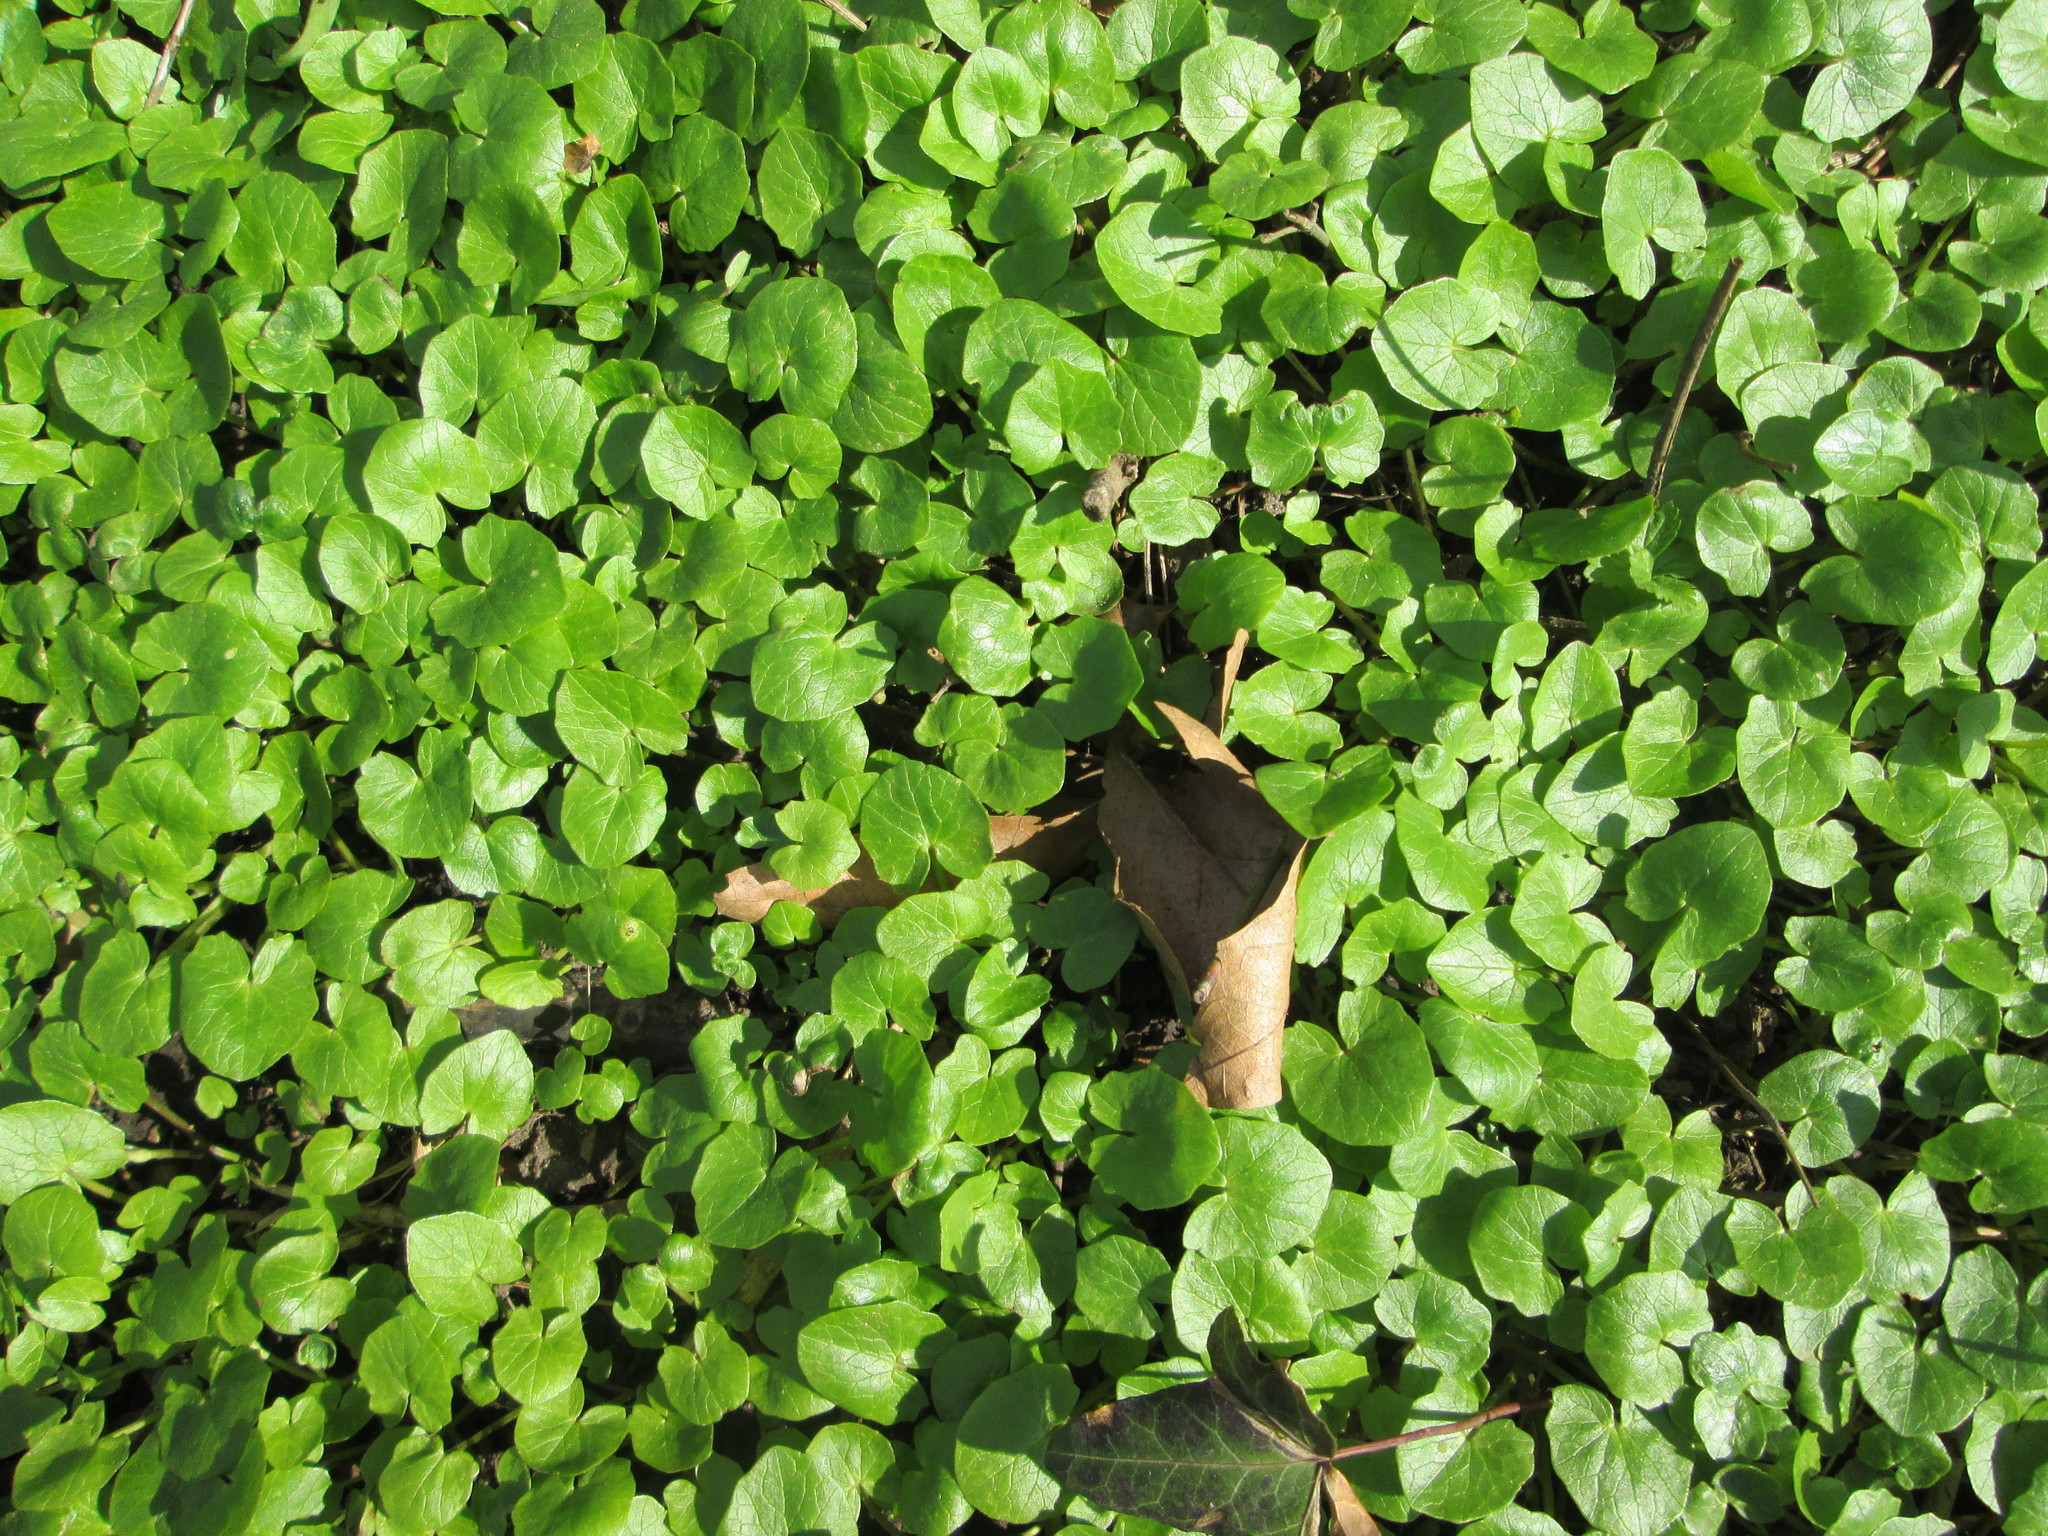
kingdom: Plantae
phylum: Tracheophyta
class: Magnoliopsida
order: Ranunculales
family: Ranunculaceae
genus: Ficaria
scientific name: Ficaria verna
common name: Lesser celandine
